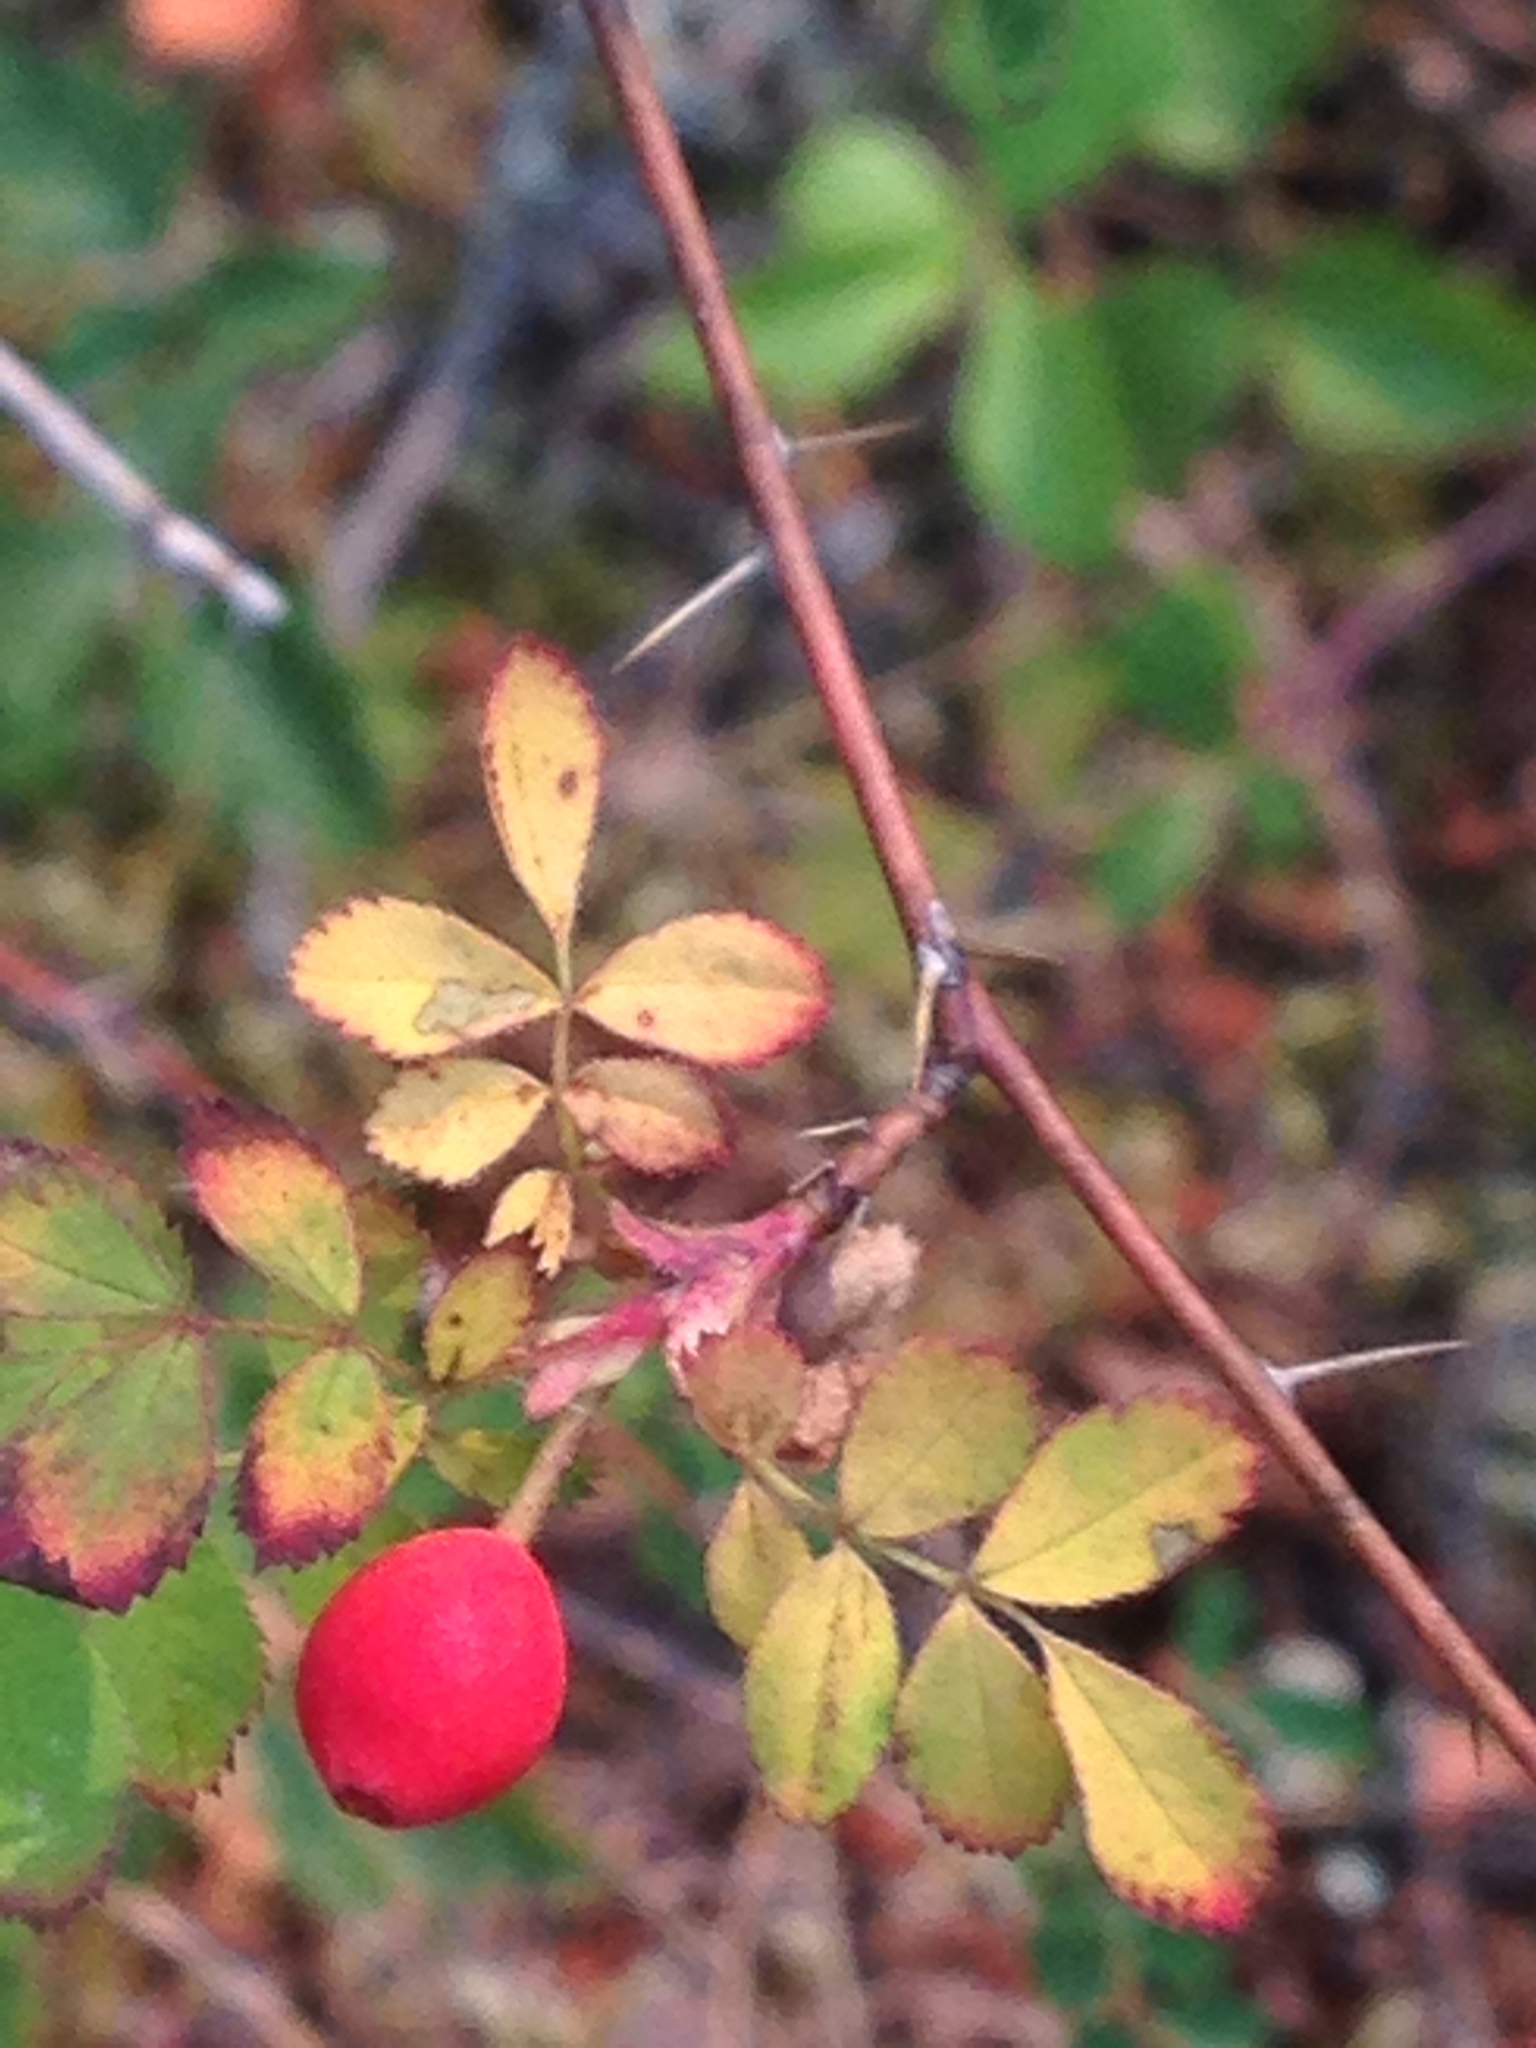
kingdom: Plantae
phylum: Tracheophyta
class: Magnoliopsida
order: Rosales
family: Rosaceae
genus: Rosa
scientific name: Rosa gymnocarpa
